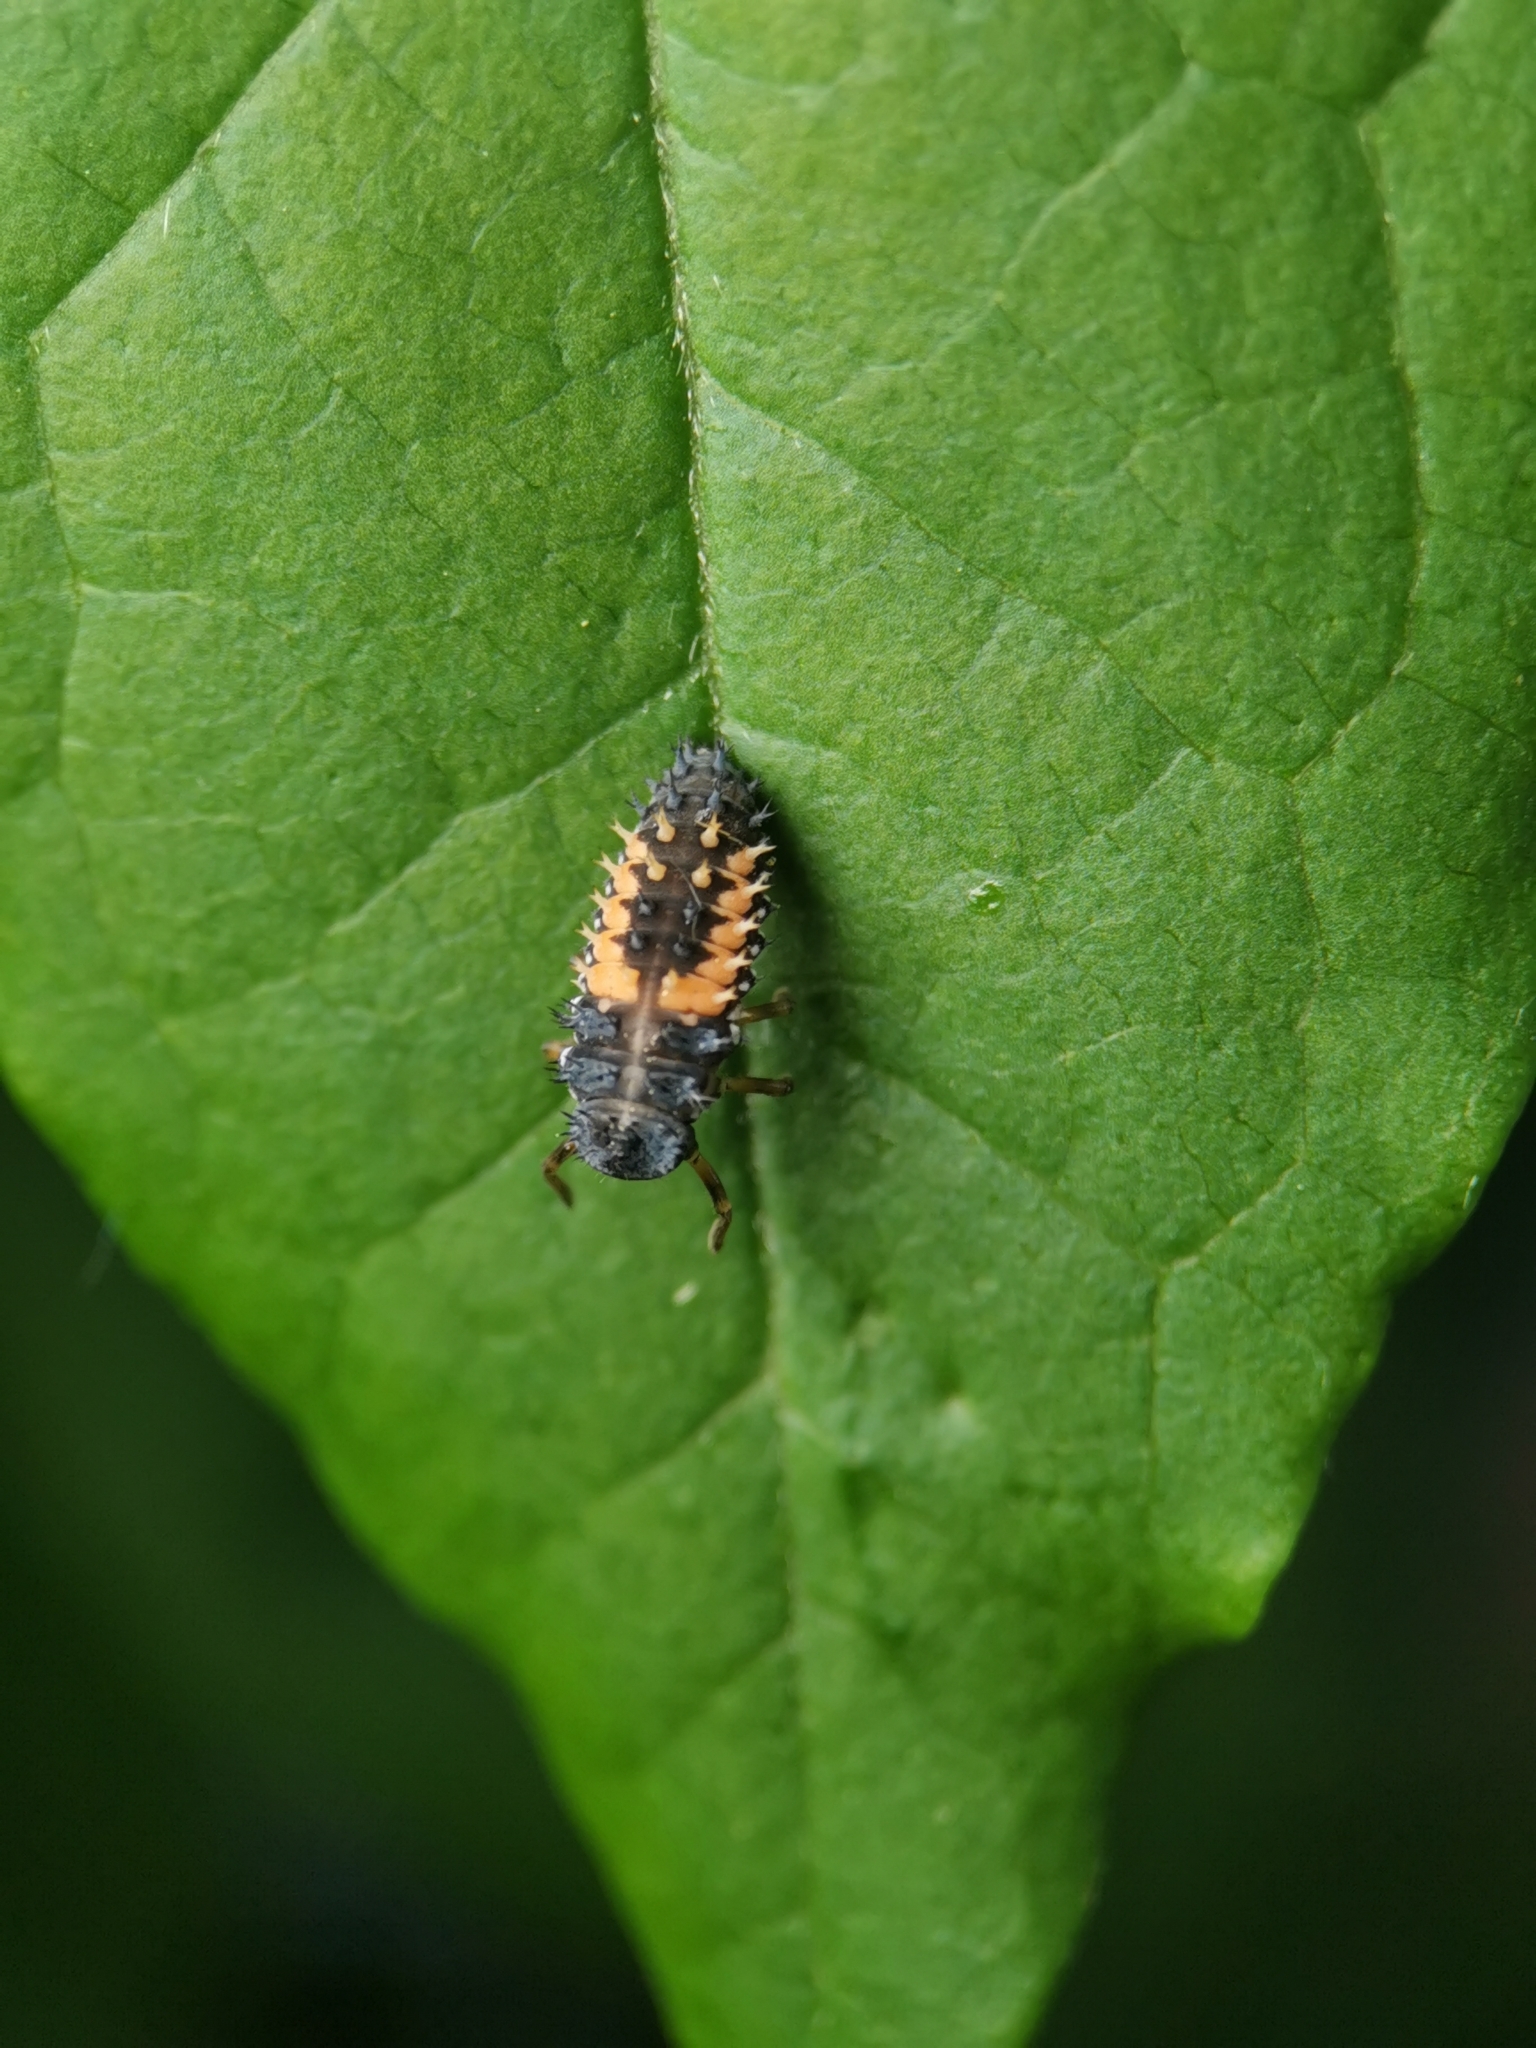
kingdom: Animalia
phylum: Arthropoda
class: Insecta
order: Coleoptera
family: Coccinellidae
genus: Harmonia
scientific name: Harmonia axyridis
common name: Harlequin ladybird
